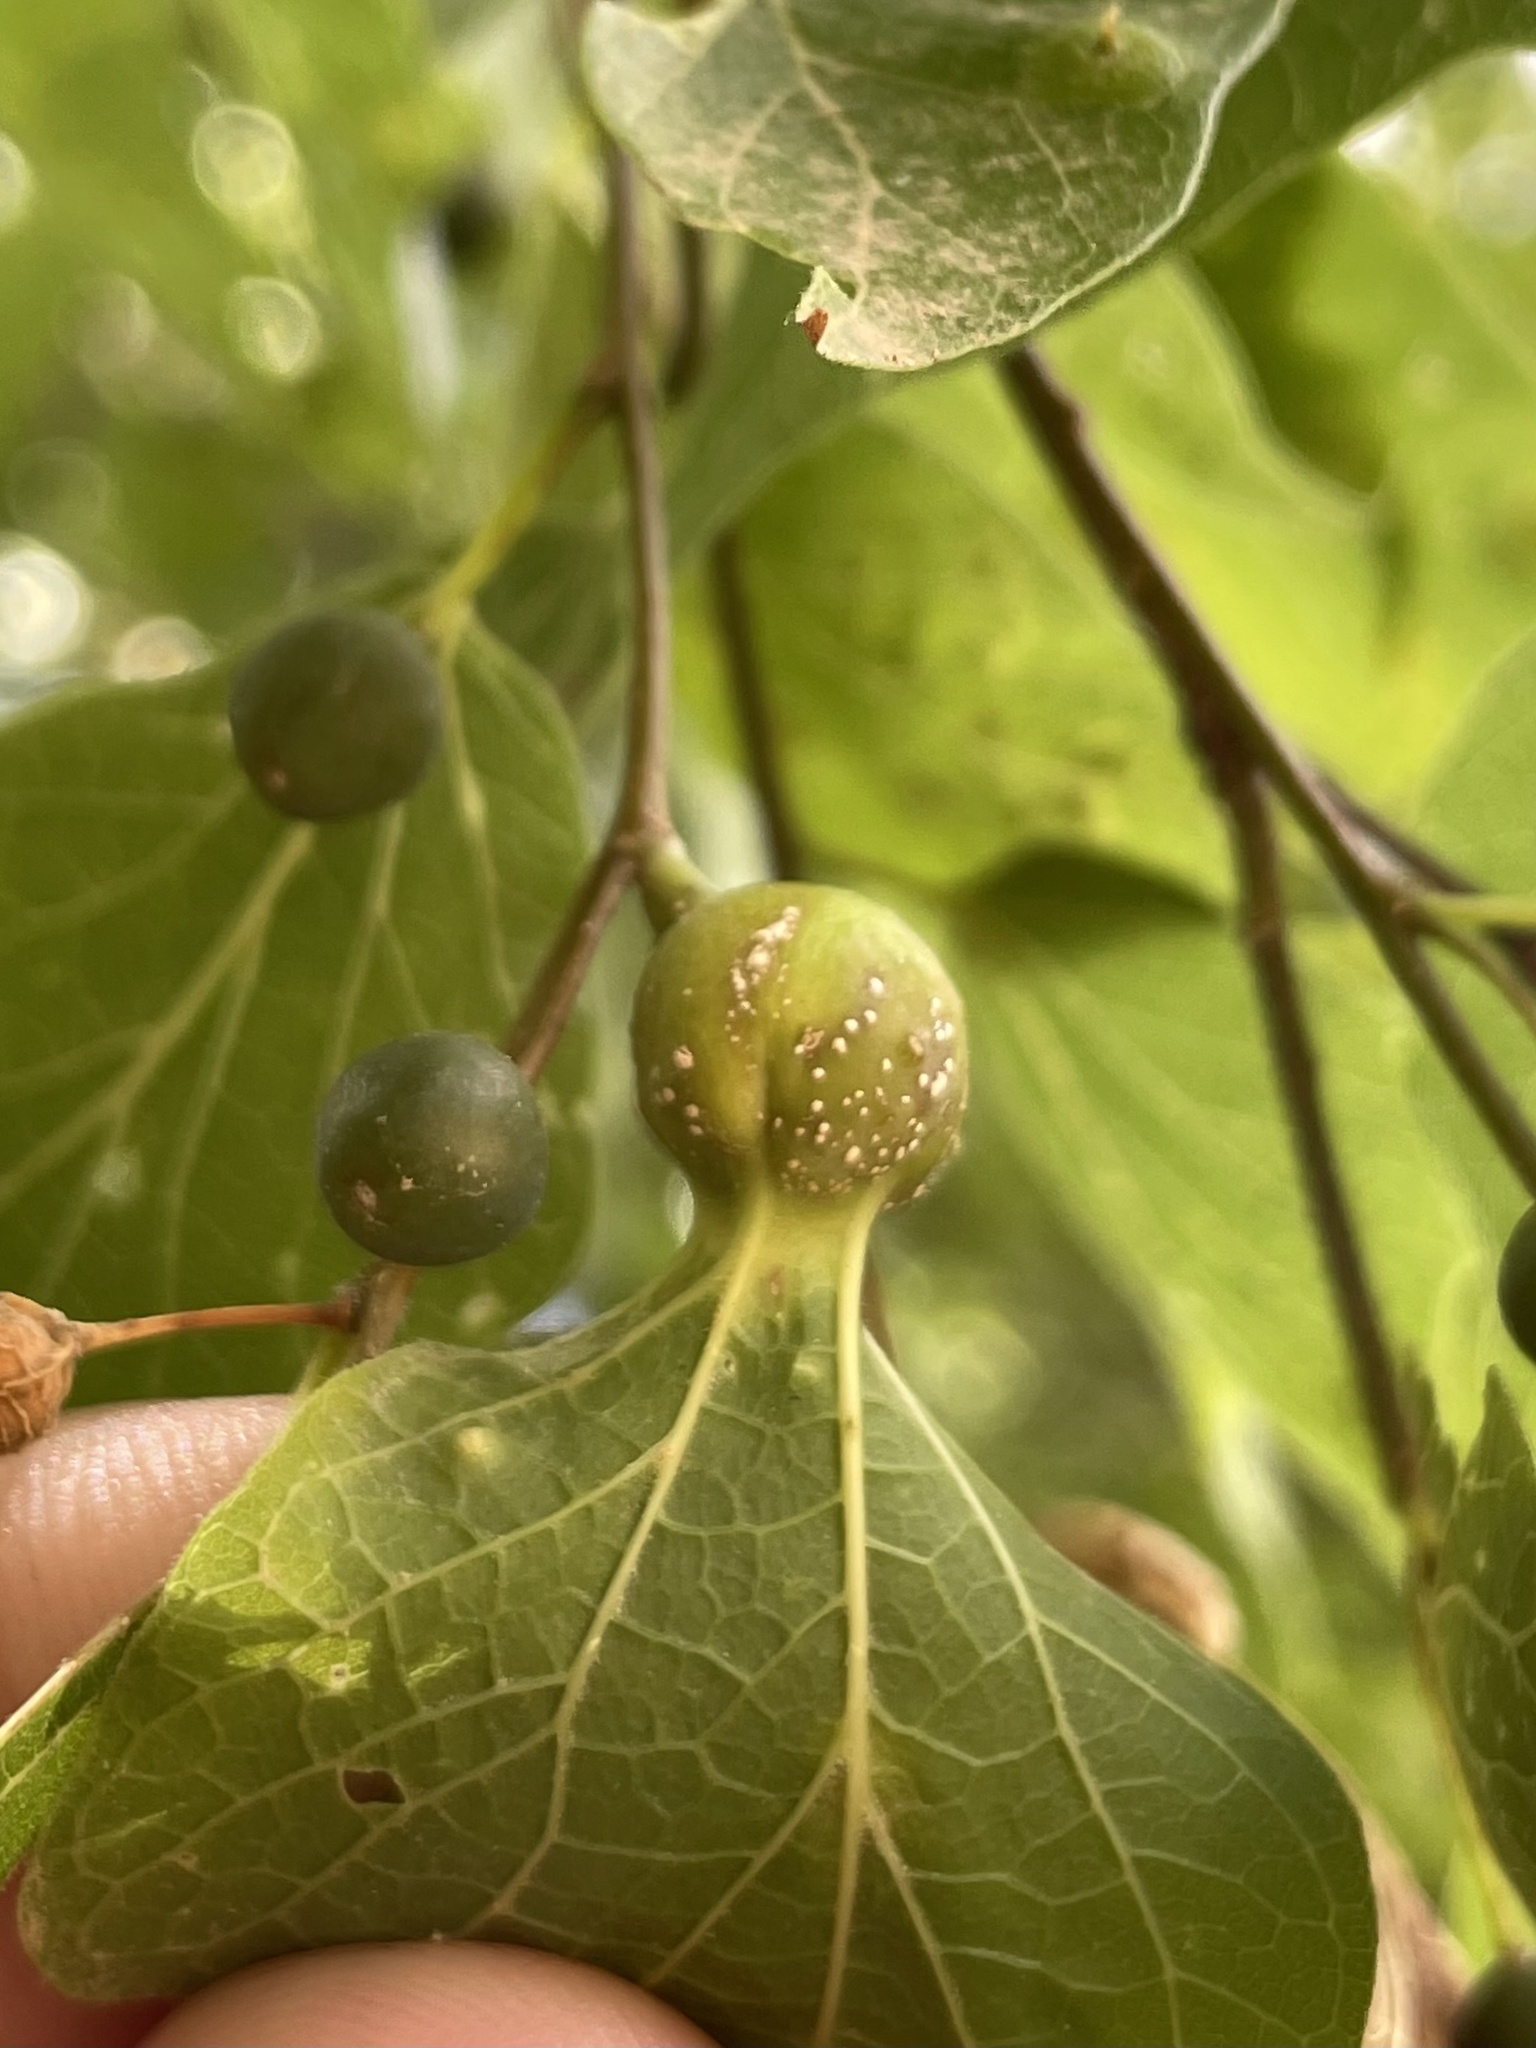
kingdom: Animalia
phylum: Arthropoda
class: Insecta
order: Hemiptera
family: Aphalaridae
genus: Pachypsylla
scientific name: Pachypsylla venusta
